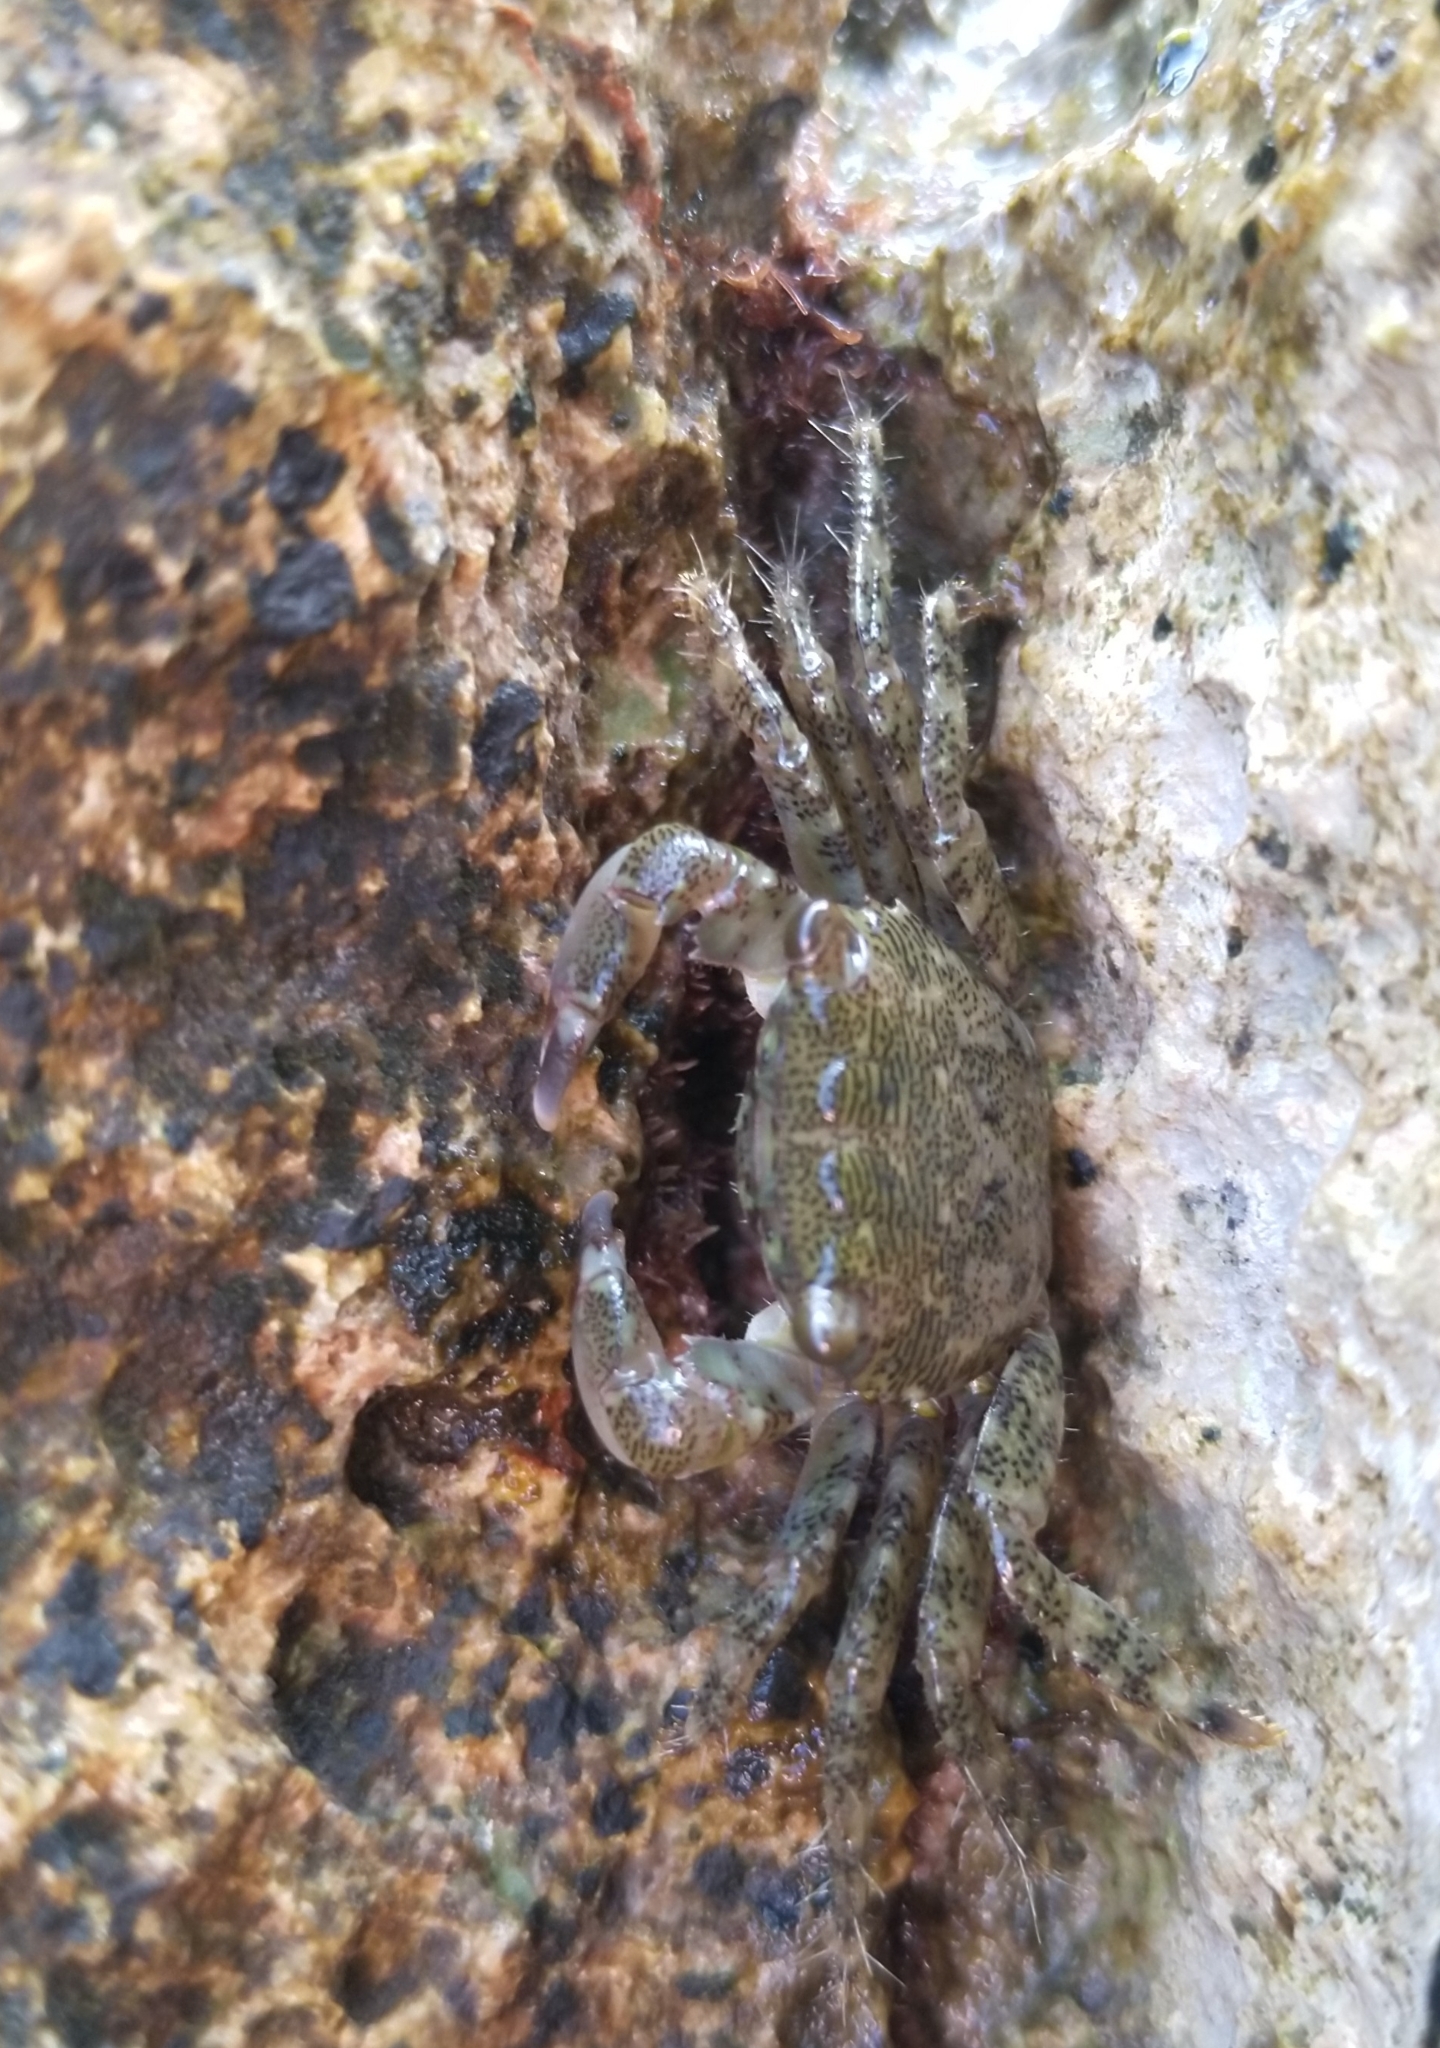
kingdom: Animalia
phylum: Arthropoda
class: Malacostraca
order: Decapoda
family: Grapsidae
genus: Pachygrapsus
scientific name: Pachygrapsus marmoratus
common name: Marbled rock crab
